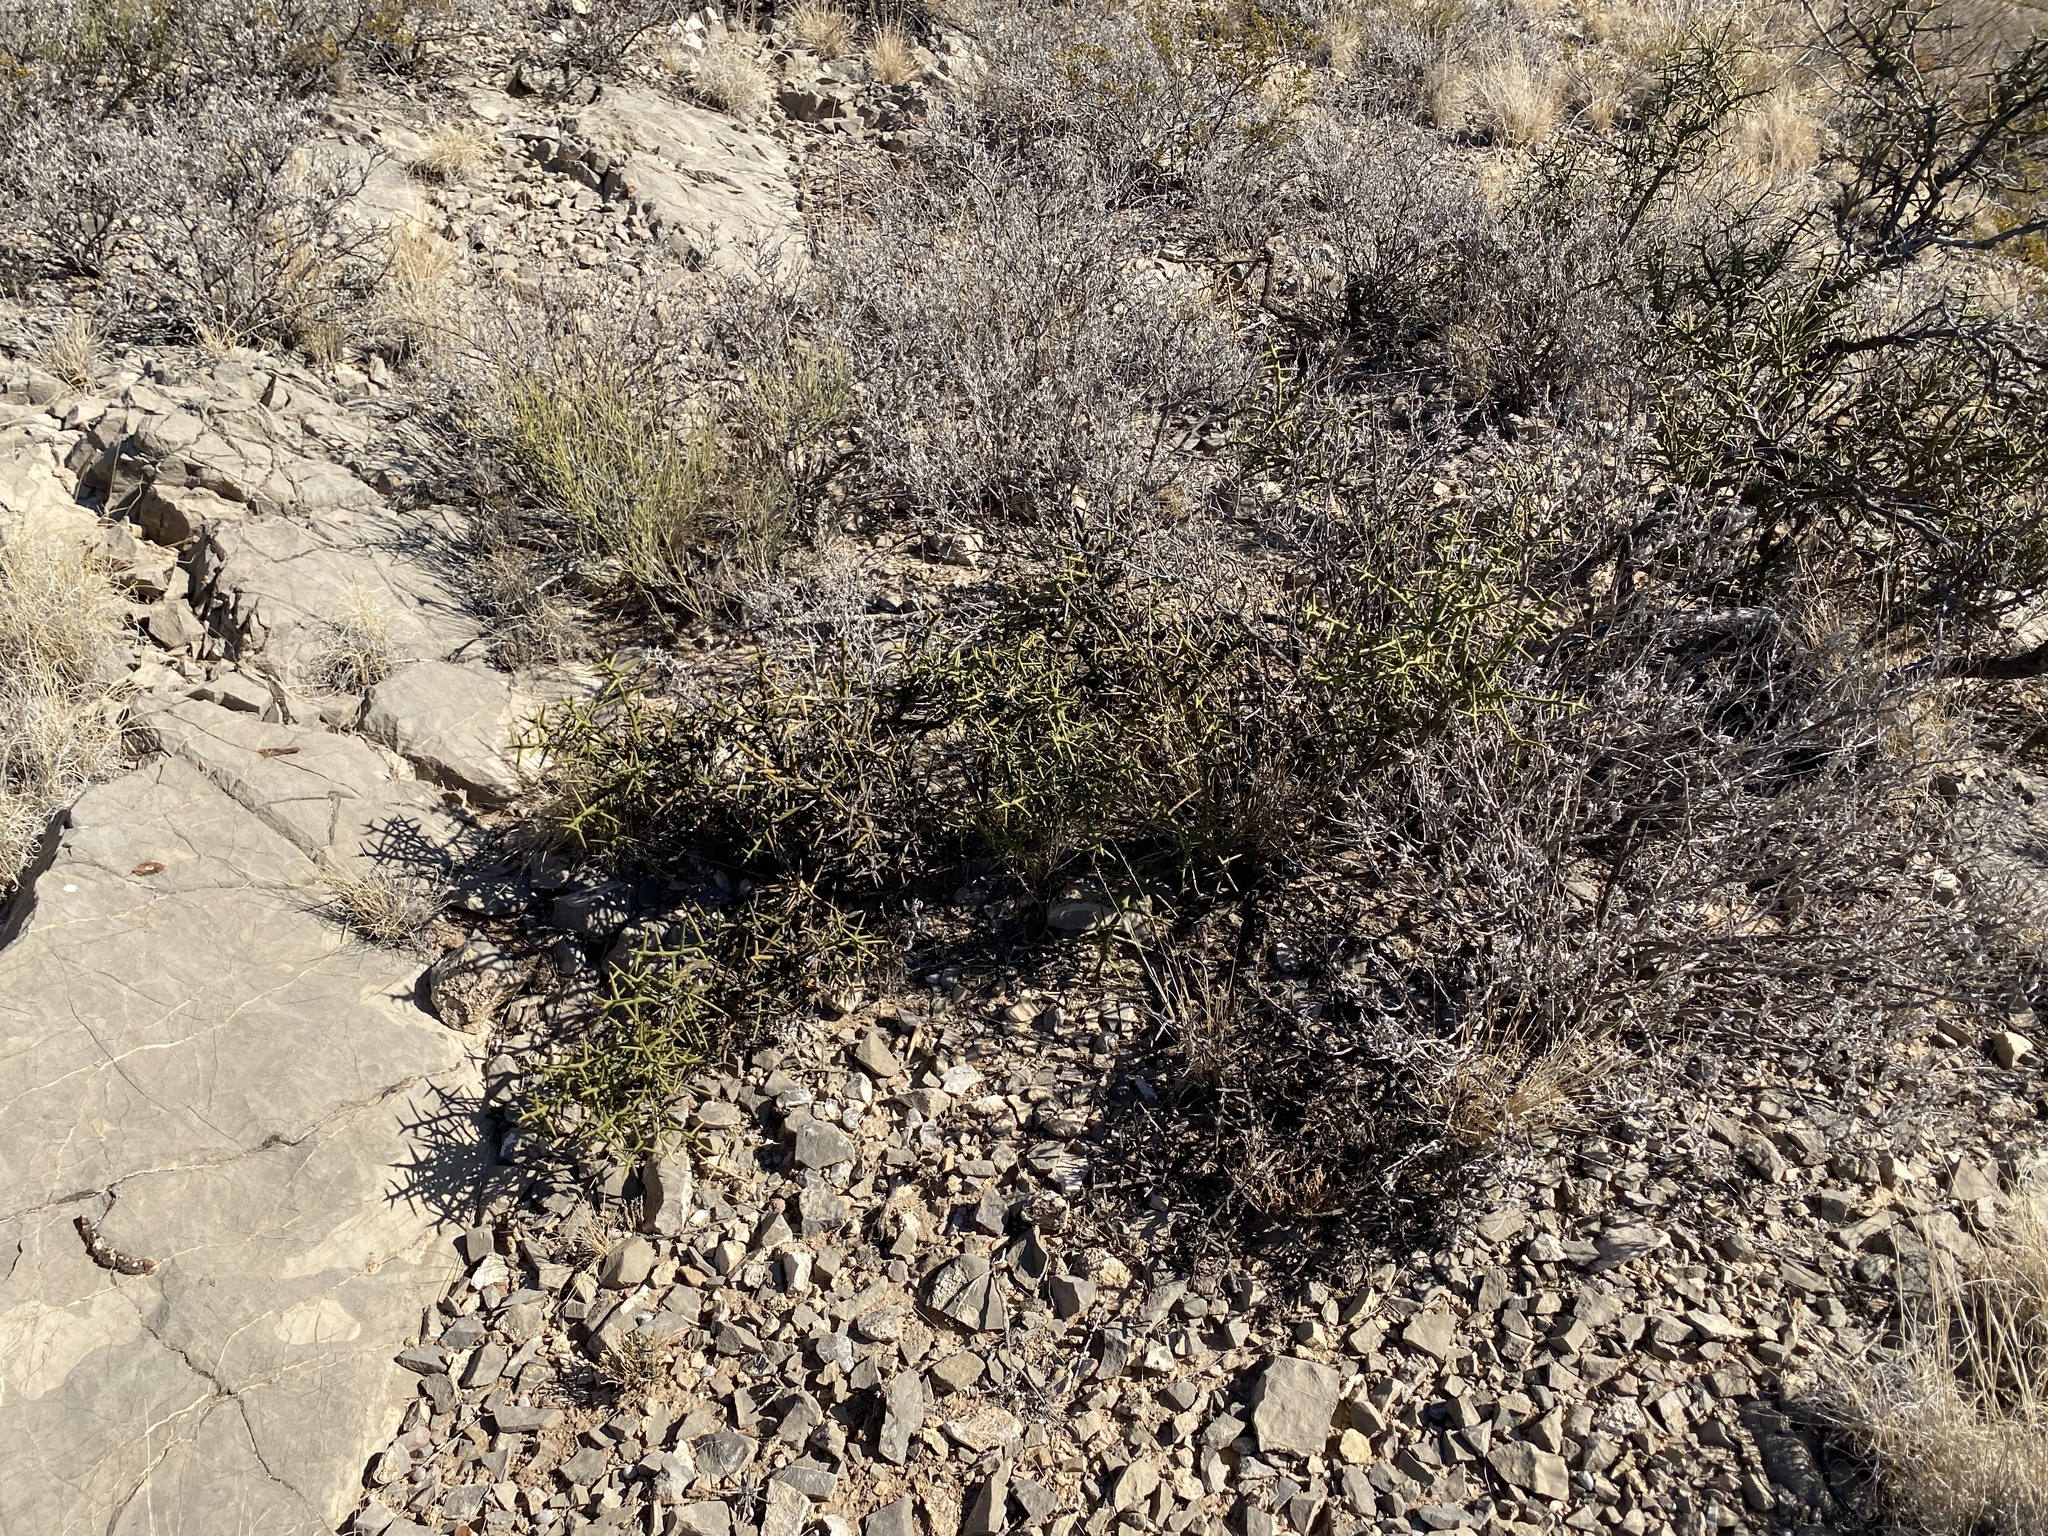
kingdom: Plantae
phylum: Tracheophyta
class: Magnoliopsida
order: Brassicales
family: Koeberliniaceae
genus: Koeberlinia
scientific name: Koeberlinia spinosa
